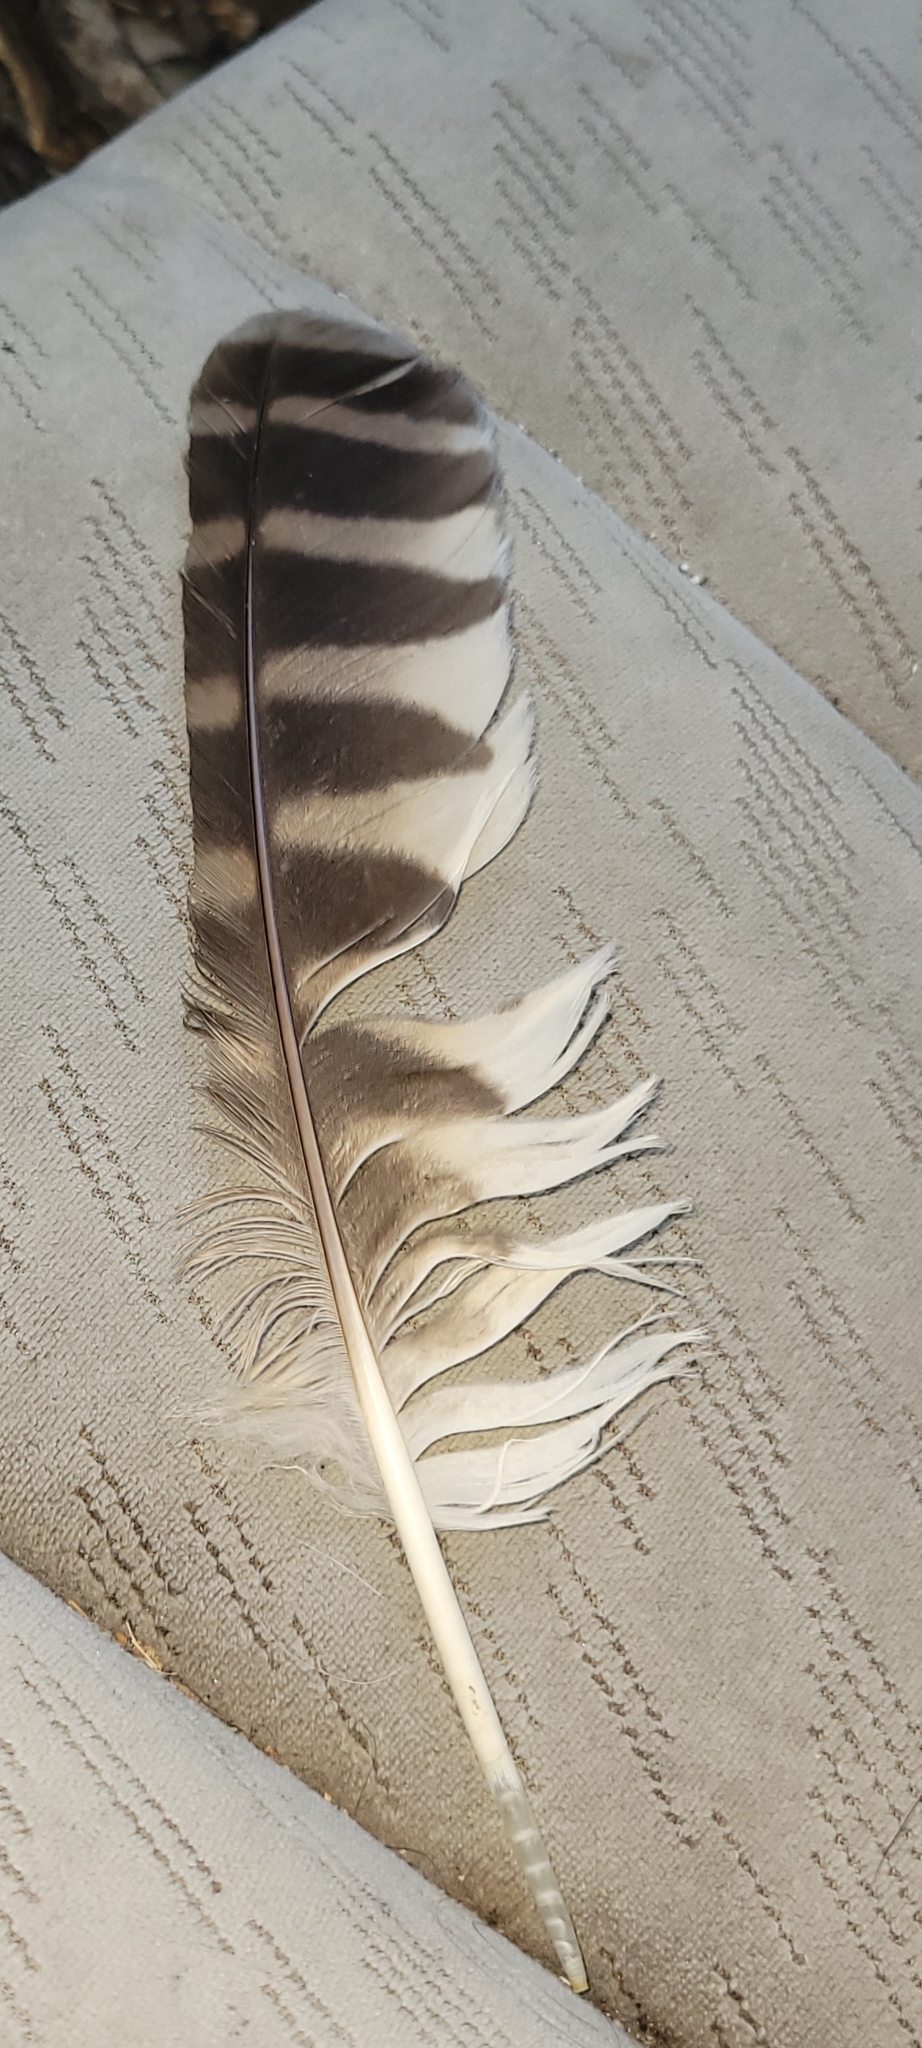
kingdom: Animalia
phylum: Chordata
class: Aves
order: Strigiformes
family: Strigidae
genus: Strix
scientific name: Strix varia
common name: Barred owl
